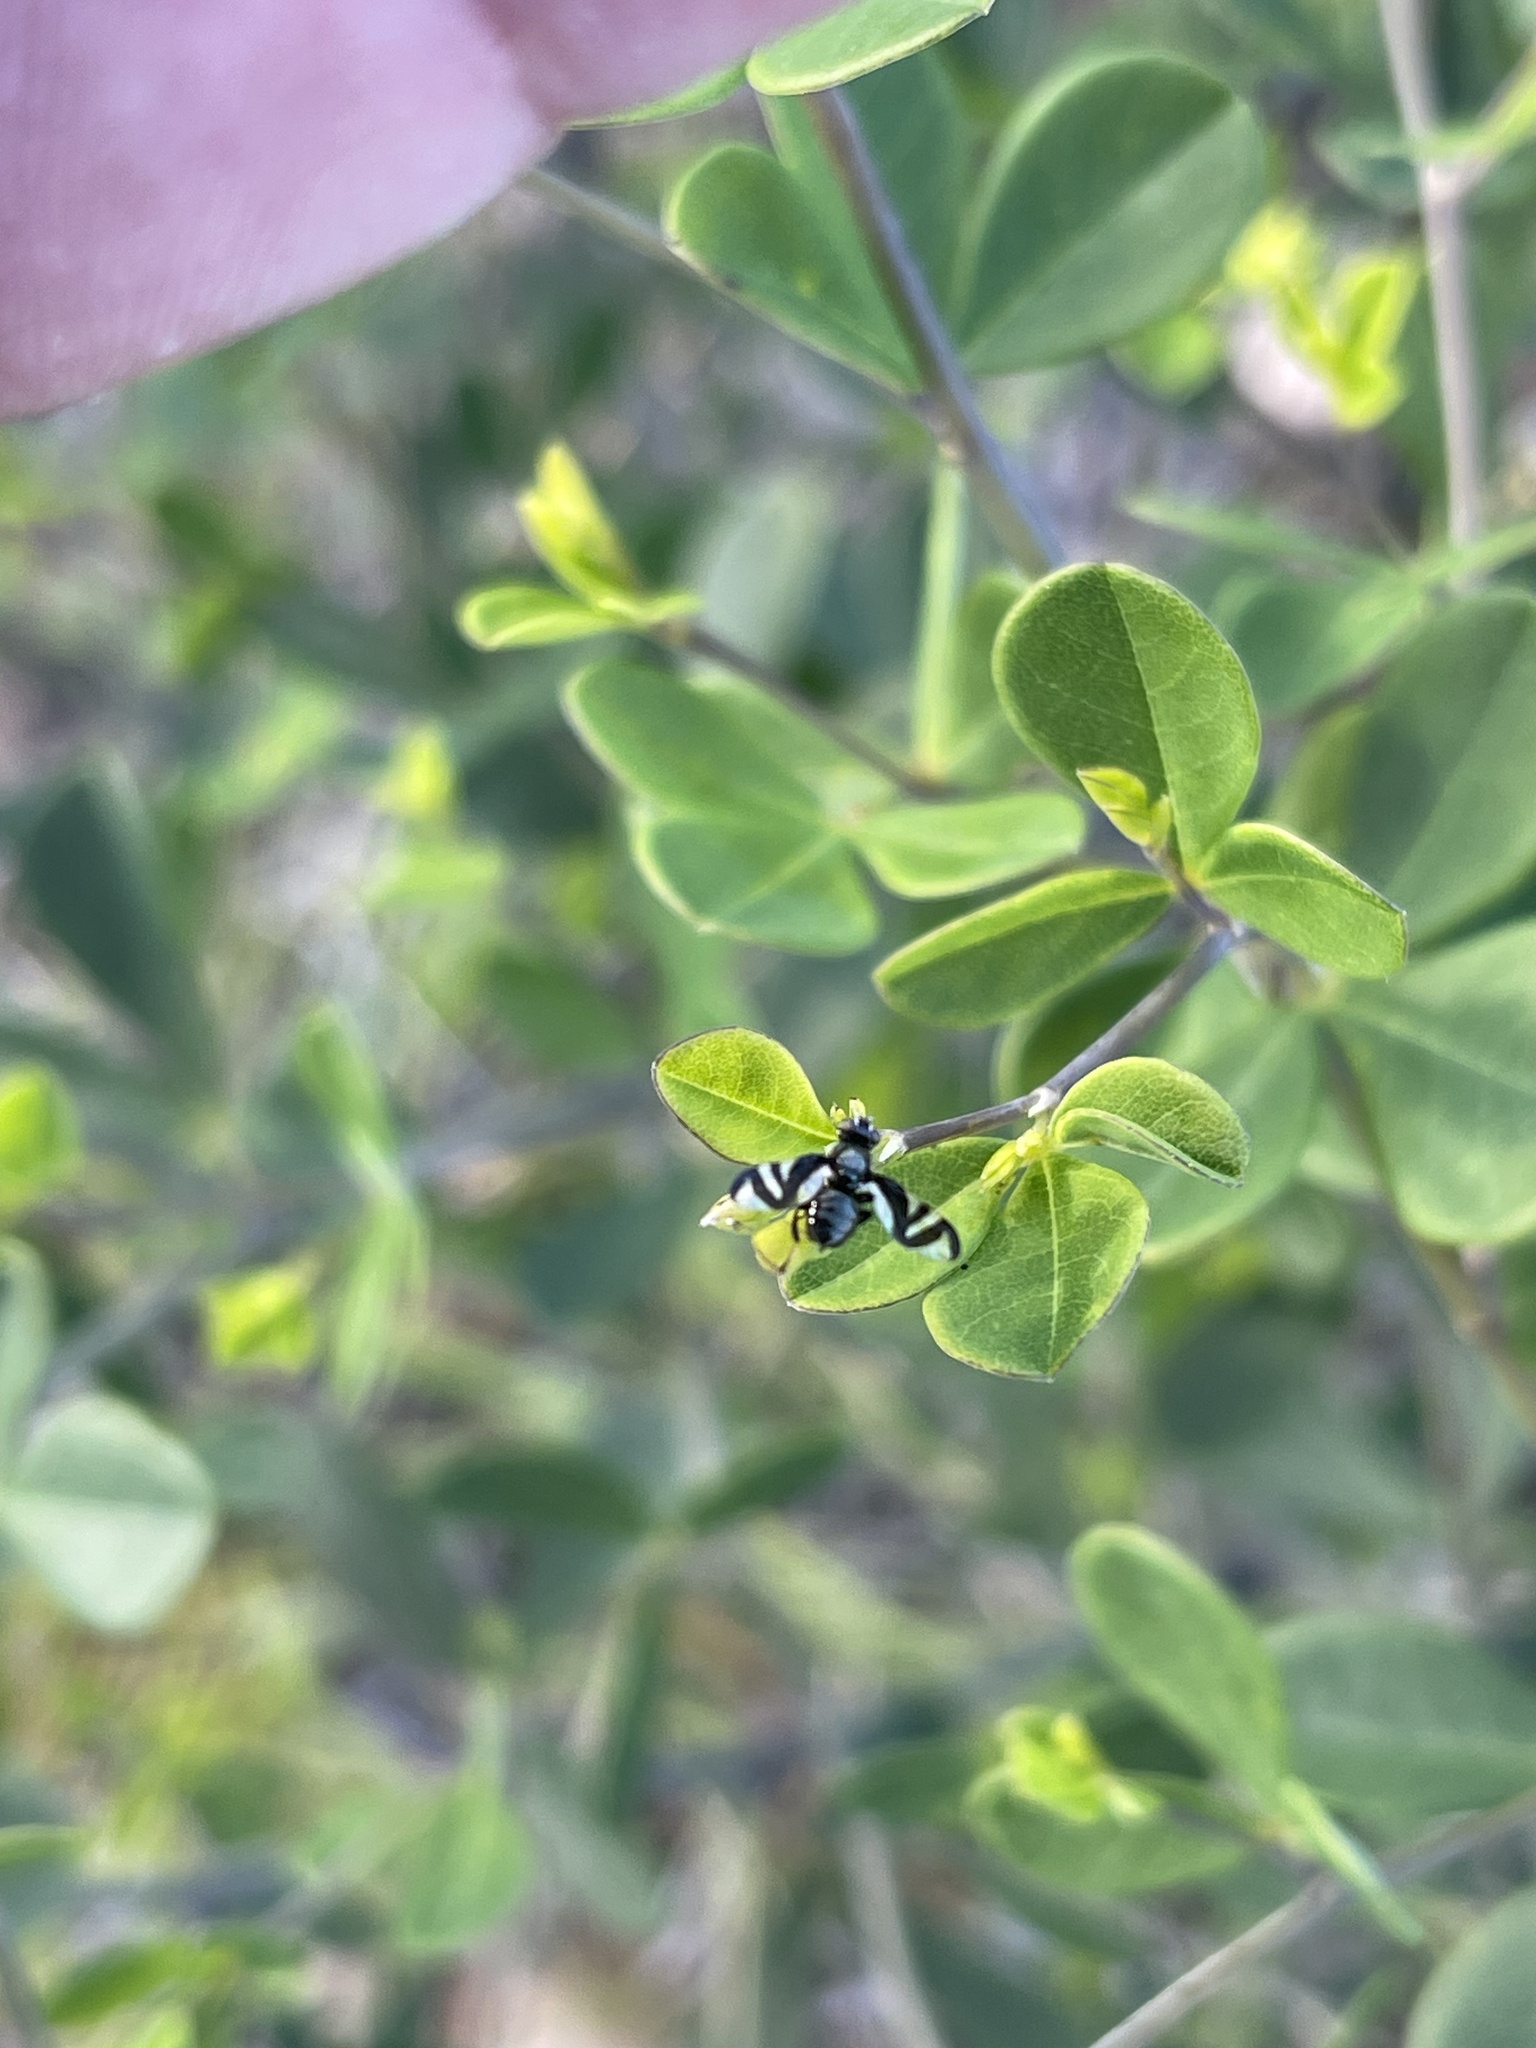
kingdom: Animalia
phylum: Arthropoda
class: Insecta
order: Diptera
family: Platystomatidae
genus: Rivellia
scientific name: Rivellia conjuncta
